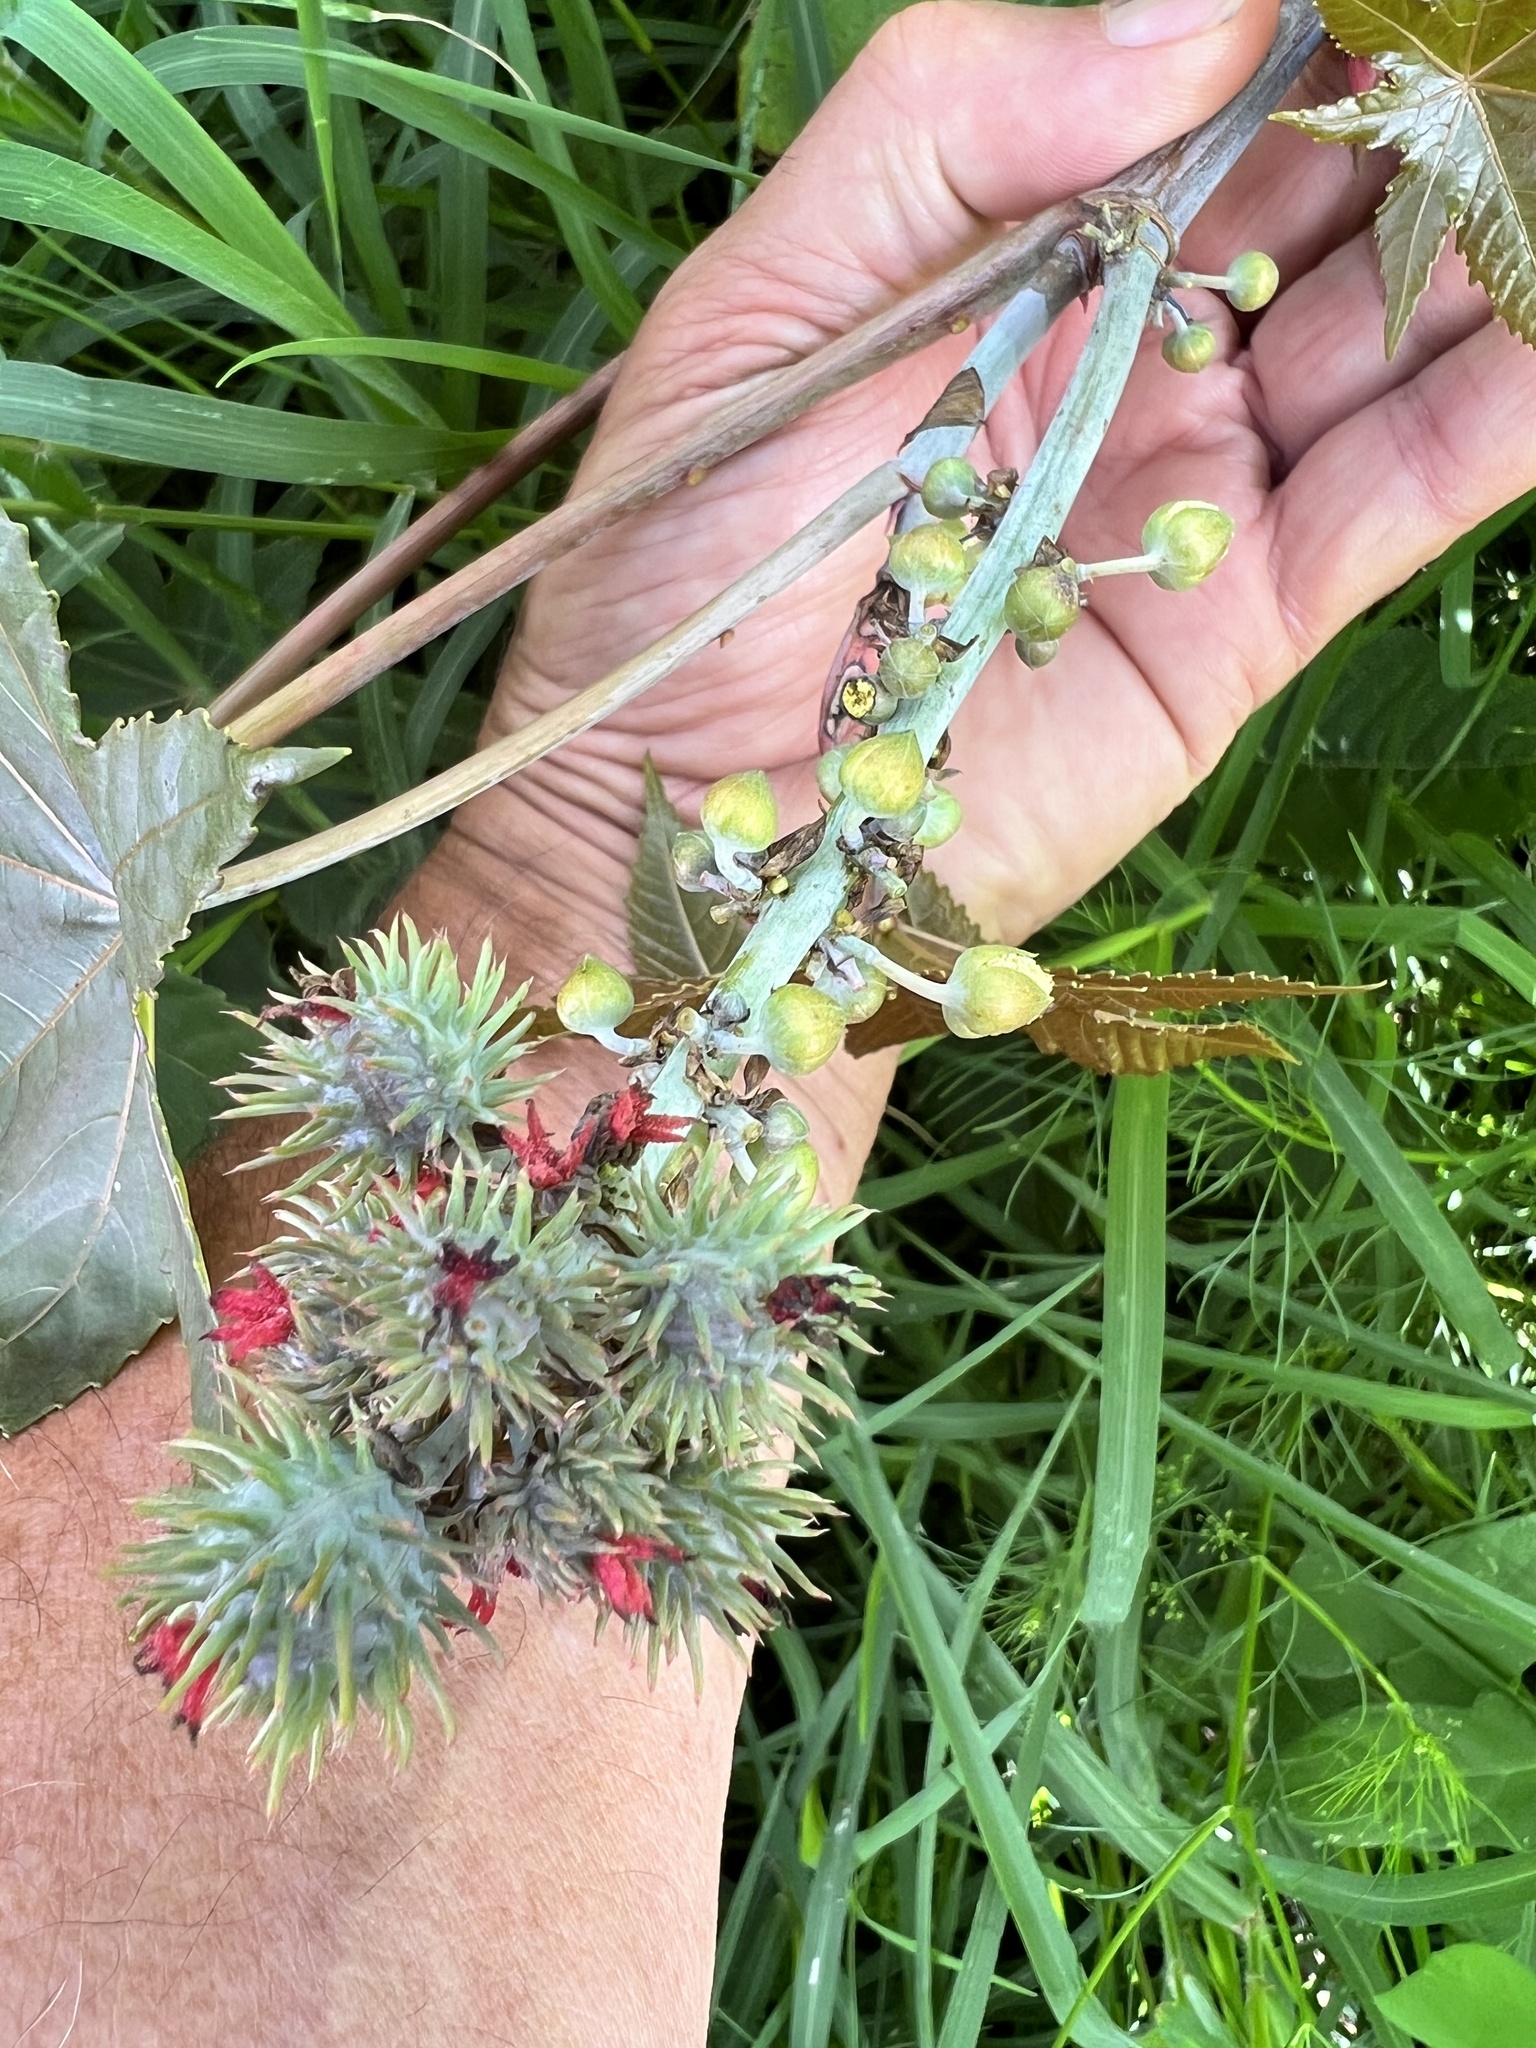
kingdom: Plantae
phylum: Tracheophyta
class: Magnoliopsida
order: Malpighiales
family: Euphorbiaceae
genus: Ricinus
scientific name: Ricinus communis
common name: Castor-oil-plant
